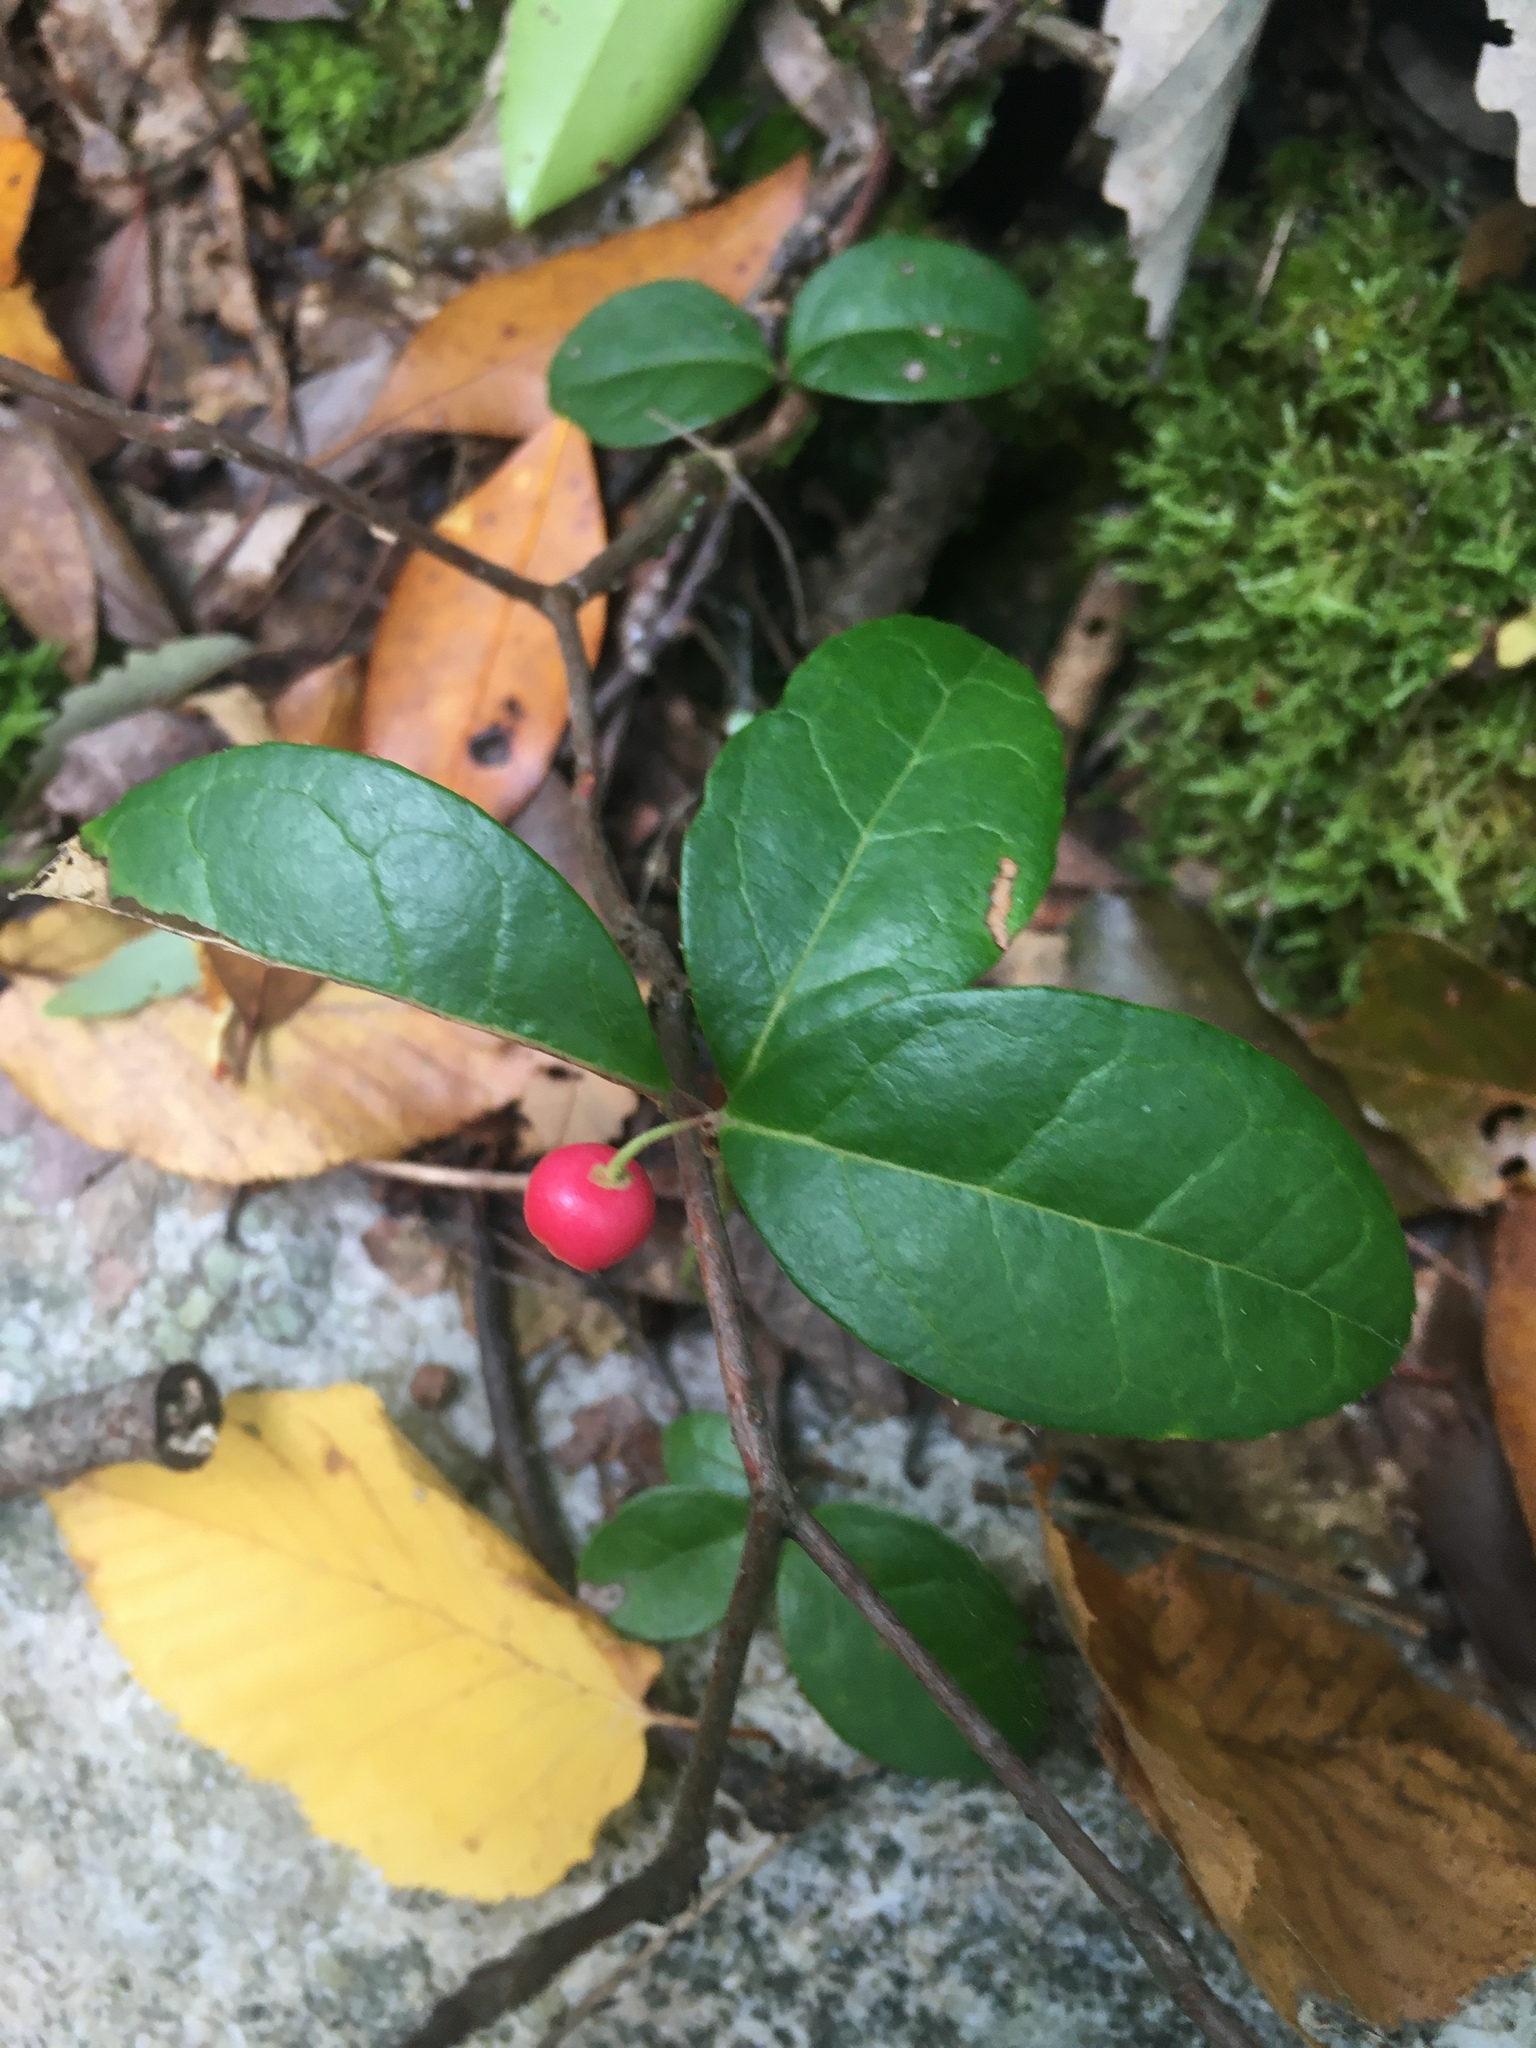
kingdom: Plantae
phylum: Tracheophyta
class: Magnoliopsida
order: Ericales
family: Ericaceae
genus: Gaultheria
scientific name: Gaultheria procumbens
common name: Checkerberry
